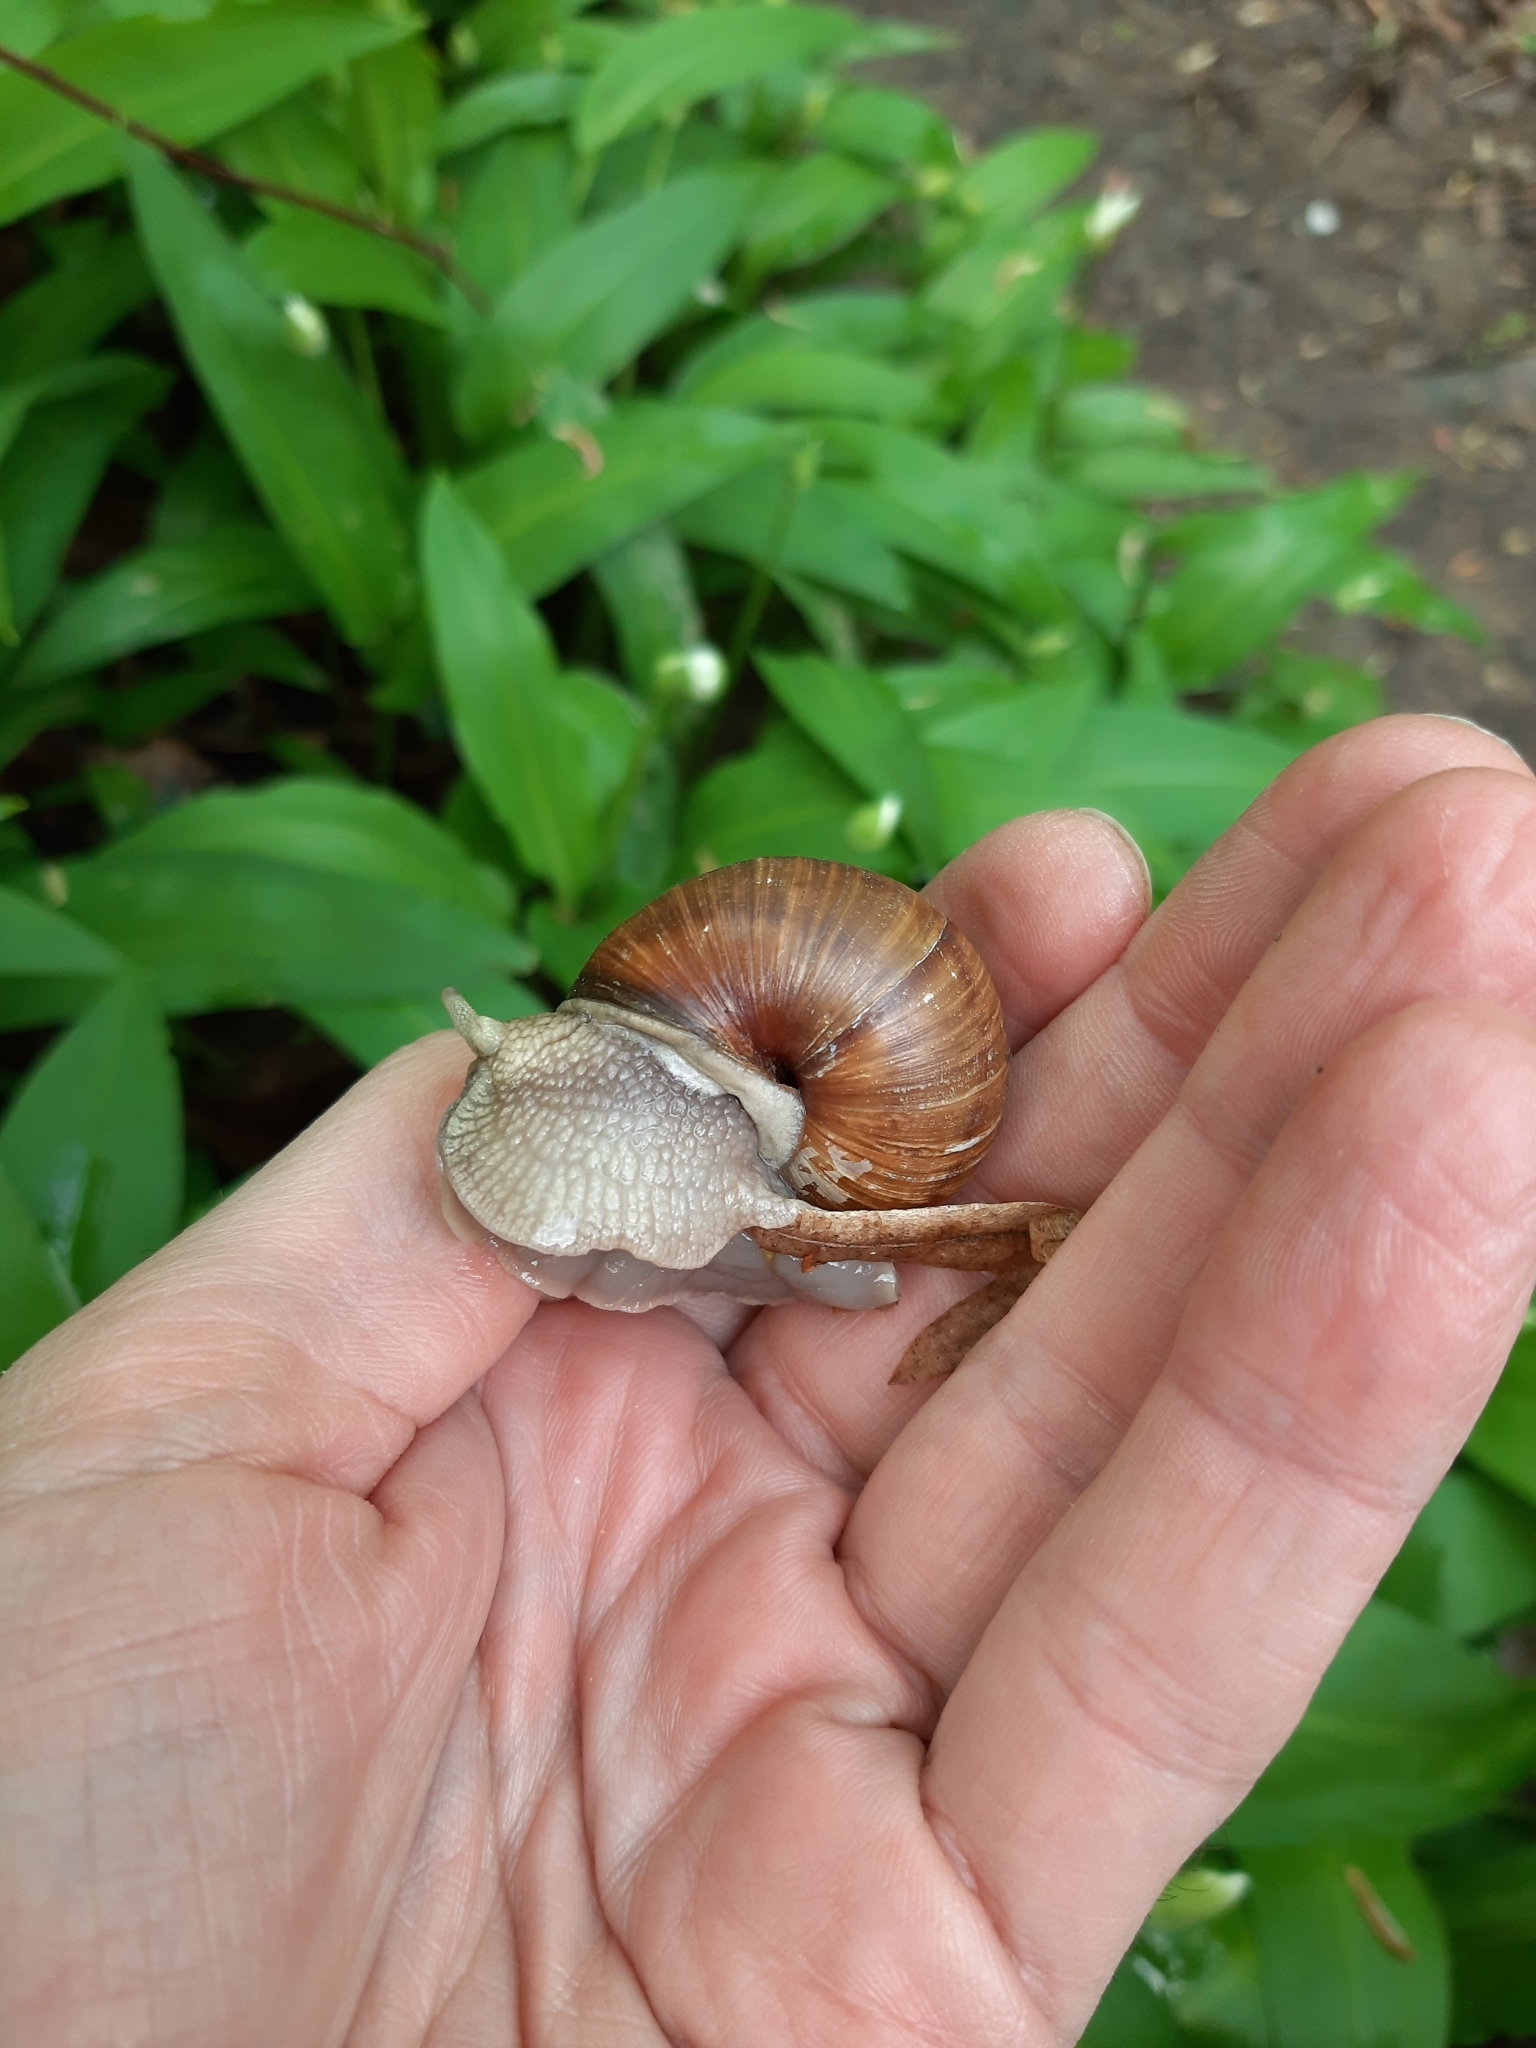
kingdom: Animalia
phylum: Mollusca
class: Gastropoda
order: Stylommatophora
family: Helicidae
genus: Helix
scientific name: Helix pomatia
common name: Roman snail
